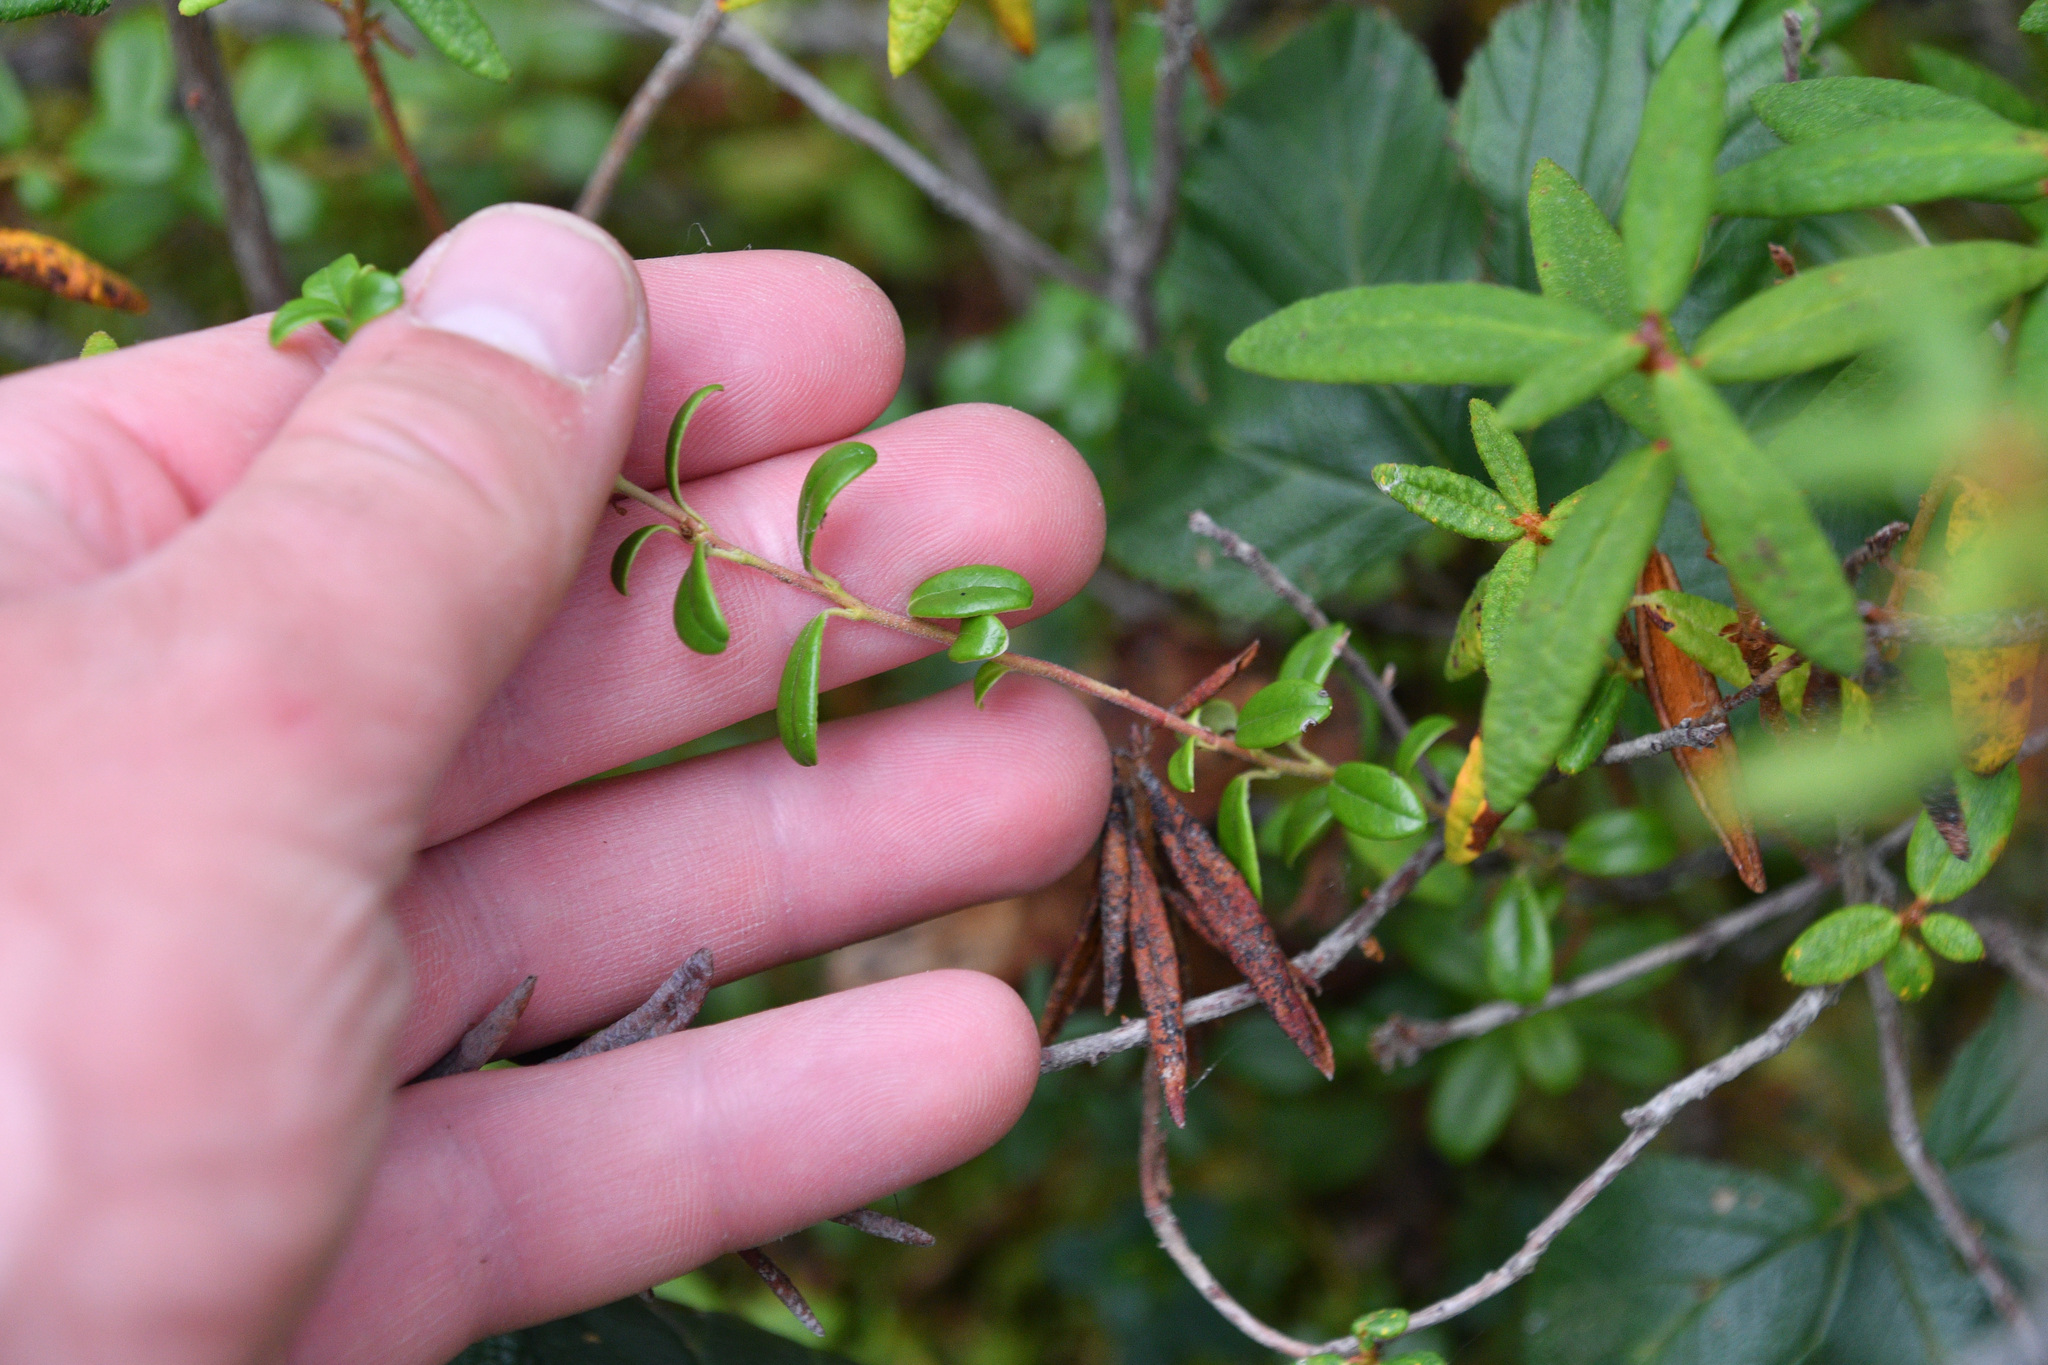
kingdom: Plantae
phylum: Tracheophyta
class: Magnoliopsida
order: Ericales
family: Ericaceae
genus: Rhododendron
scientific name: Rhododendron groenlandicum
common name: Bog labrador tea
